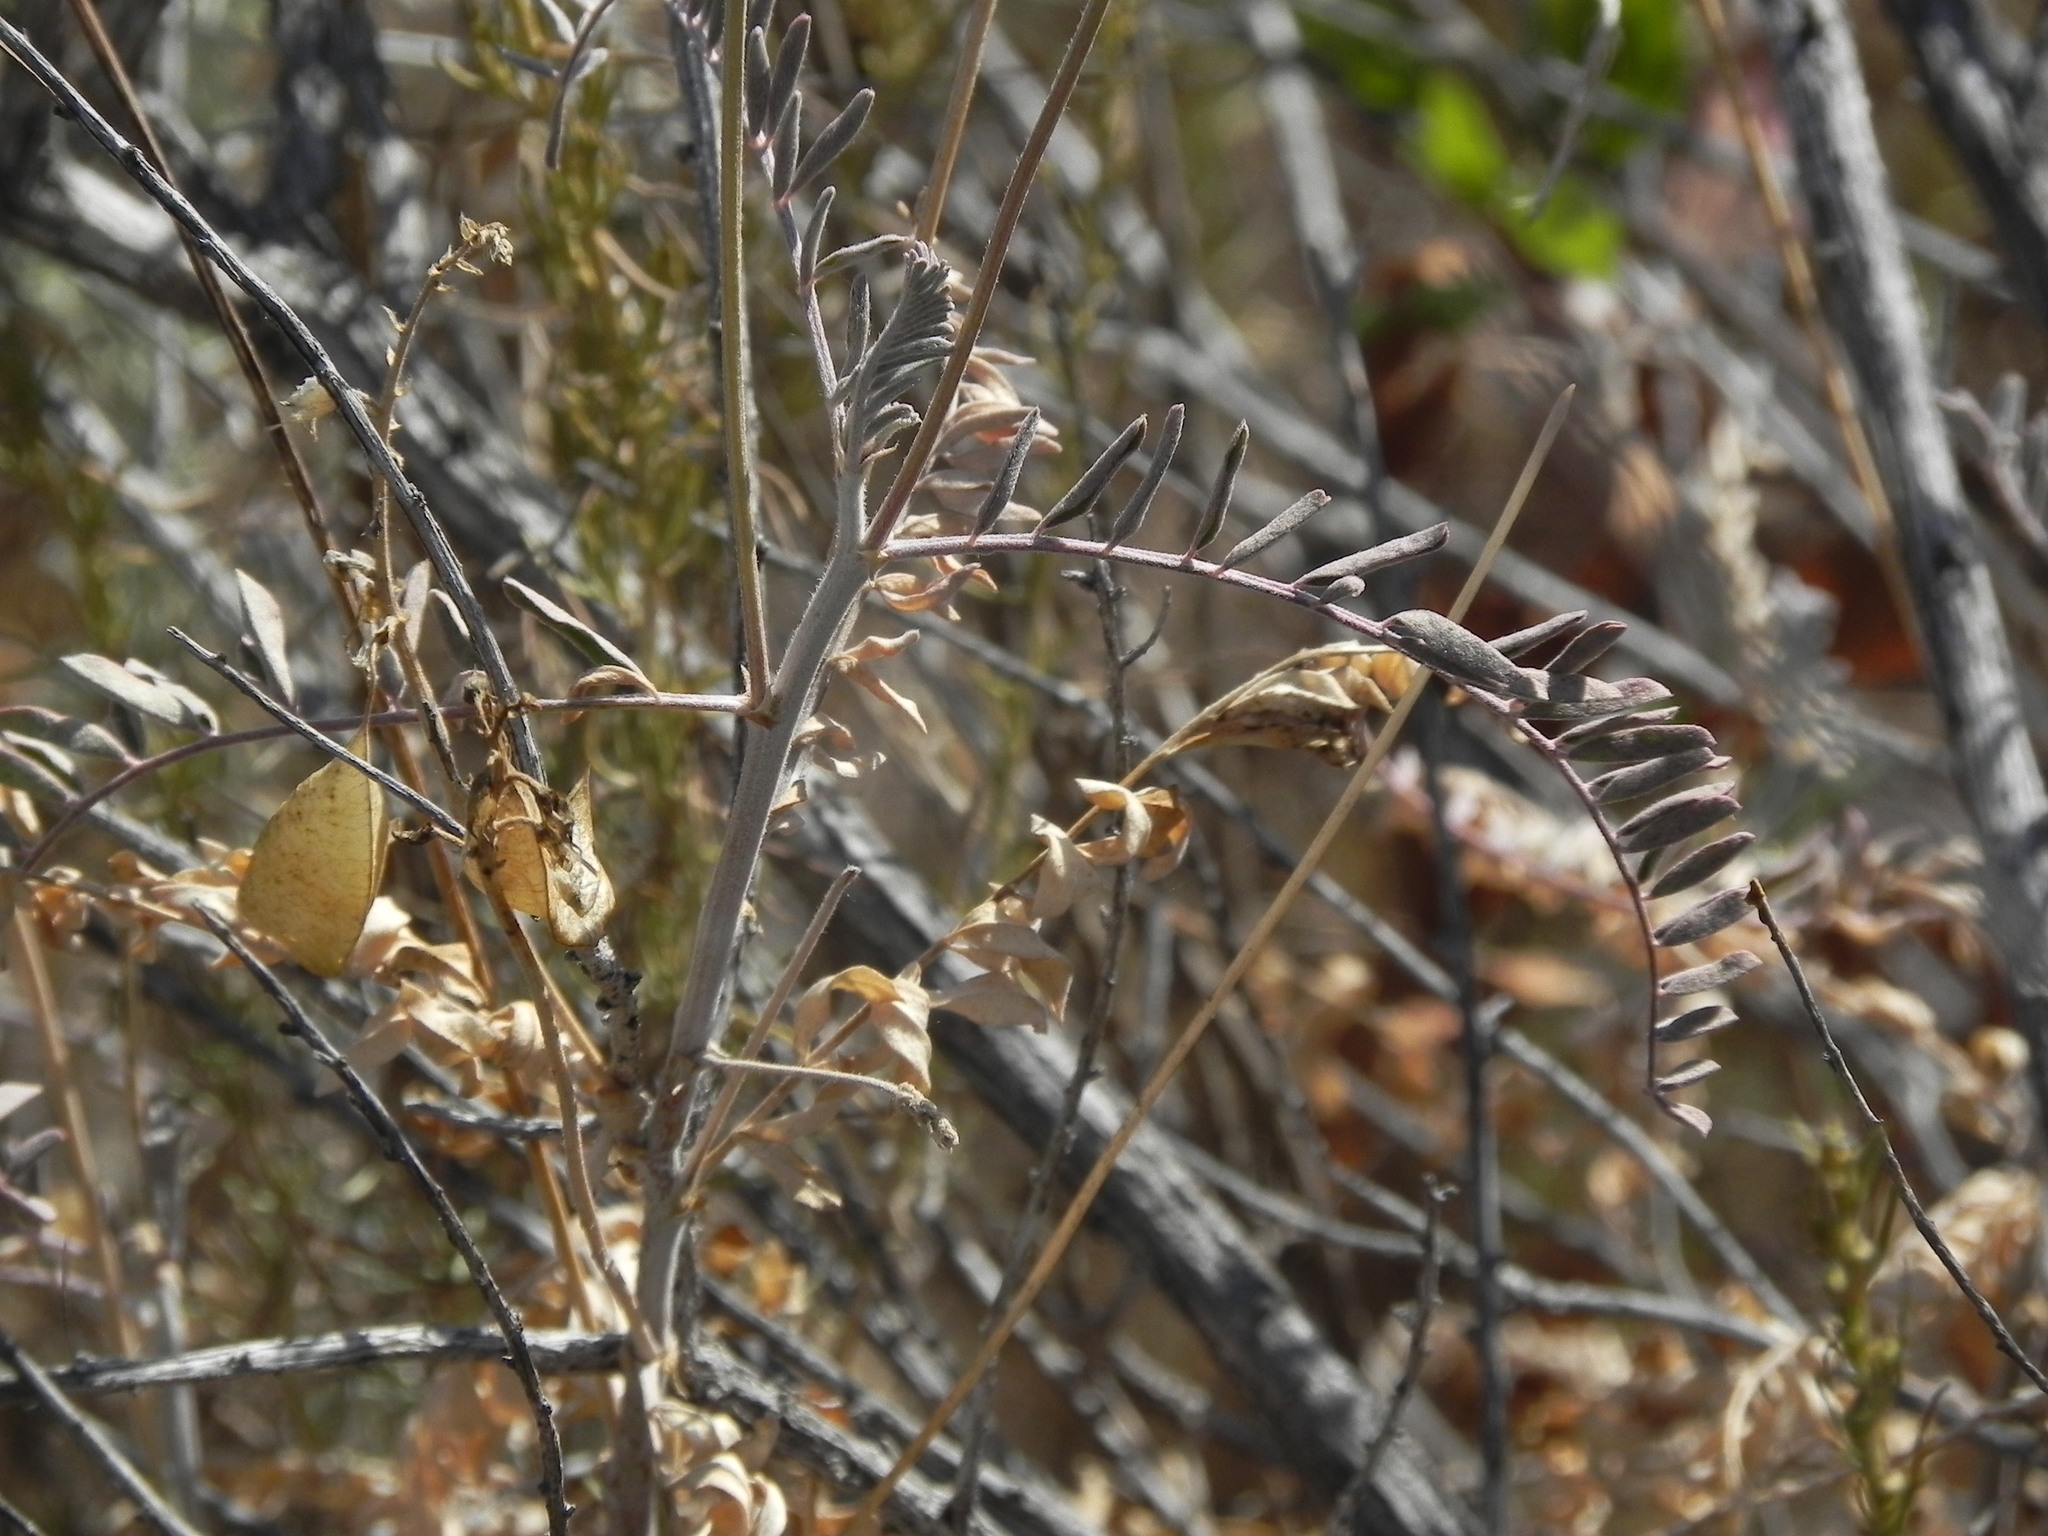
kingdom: Plantae
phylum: Tracheophyta
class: Magnoliopsida
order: Fabales
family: Fabaceae
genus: Astragalus
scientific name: Astragalus trichopodus
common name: Santa barbara milk-vetch
